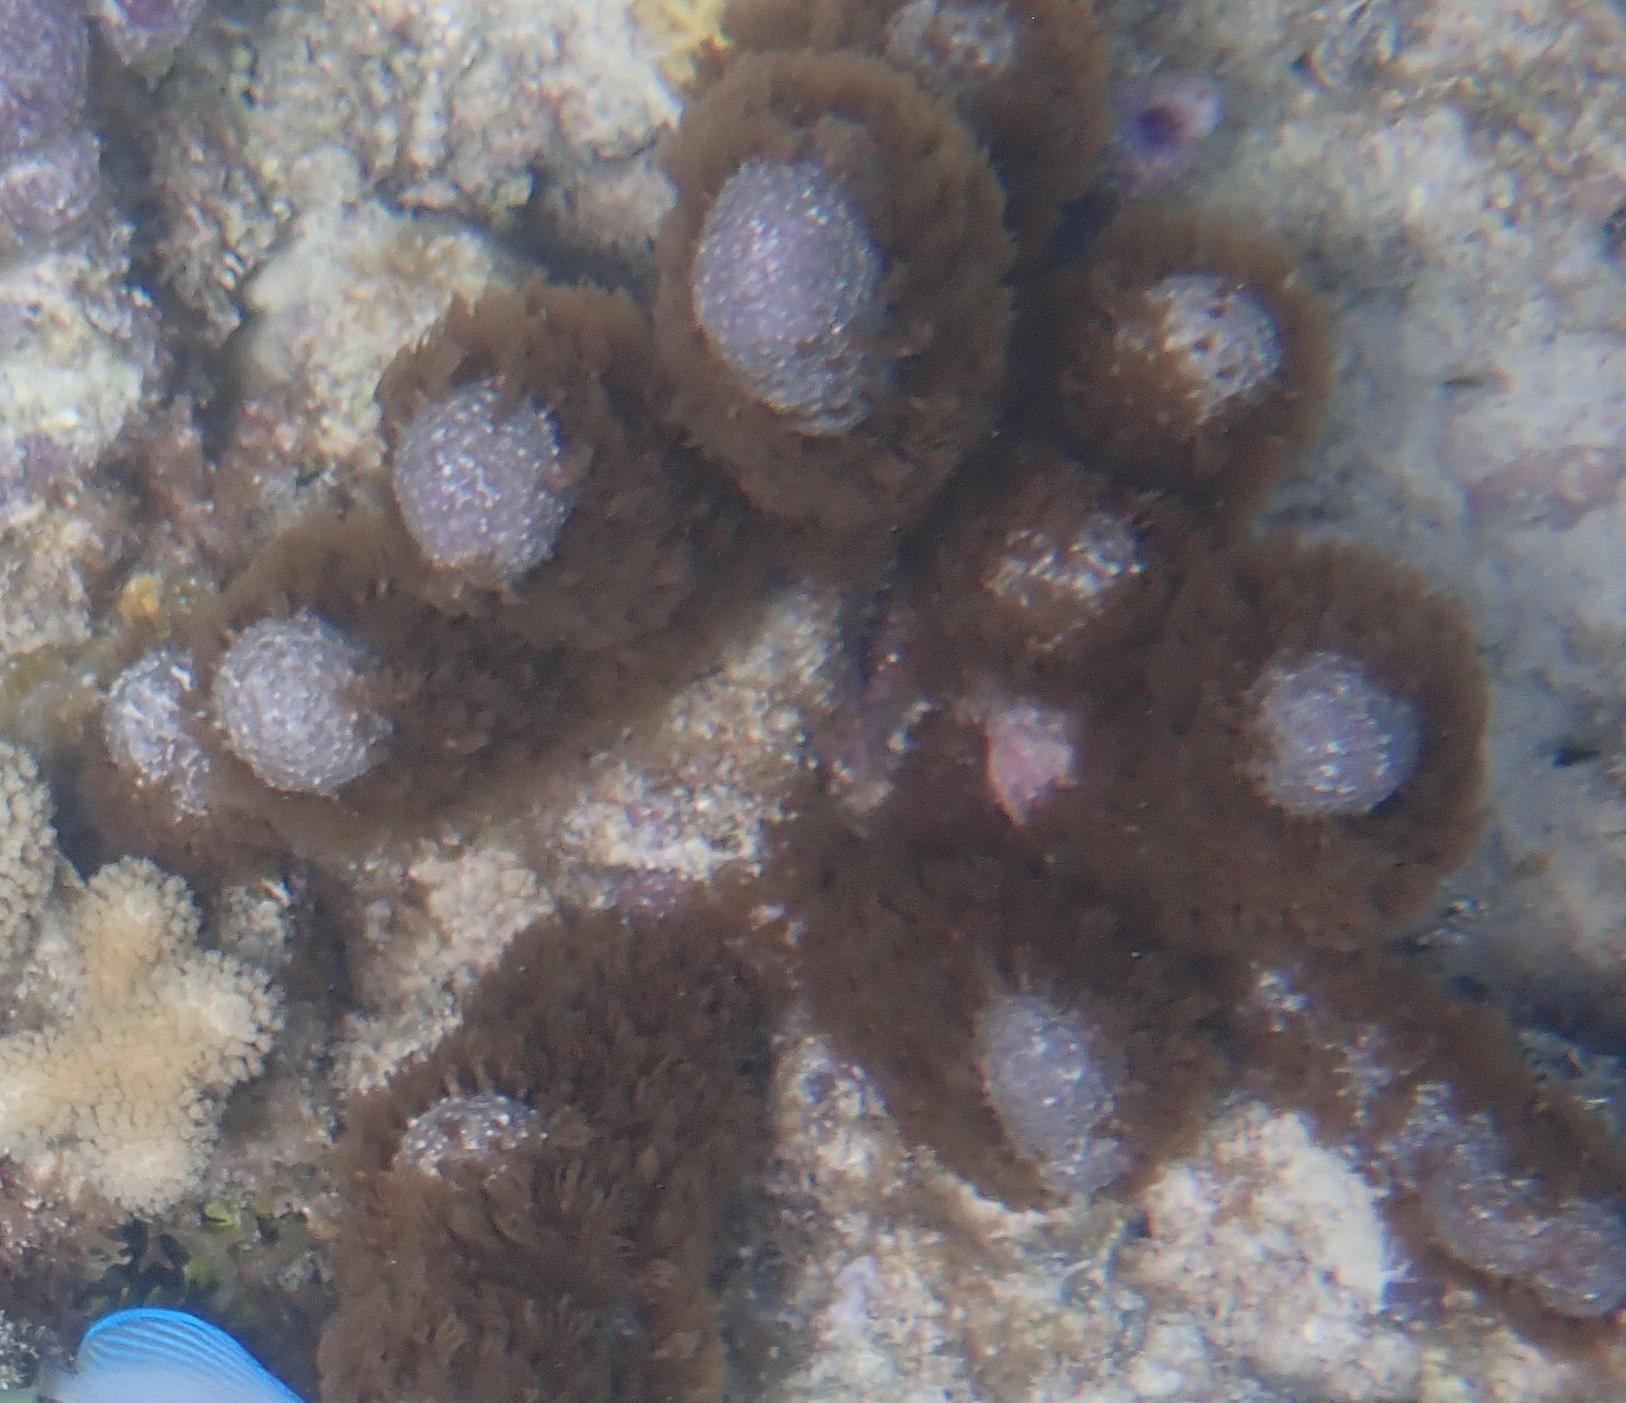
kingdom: Animalia
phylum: Cnidaria
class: Anthozoa
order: Scleralcyonacea
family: Briareidae
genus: Briareum
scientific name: Briareum asbestinum
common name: Corky sea finger
